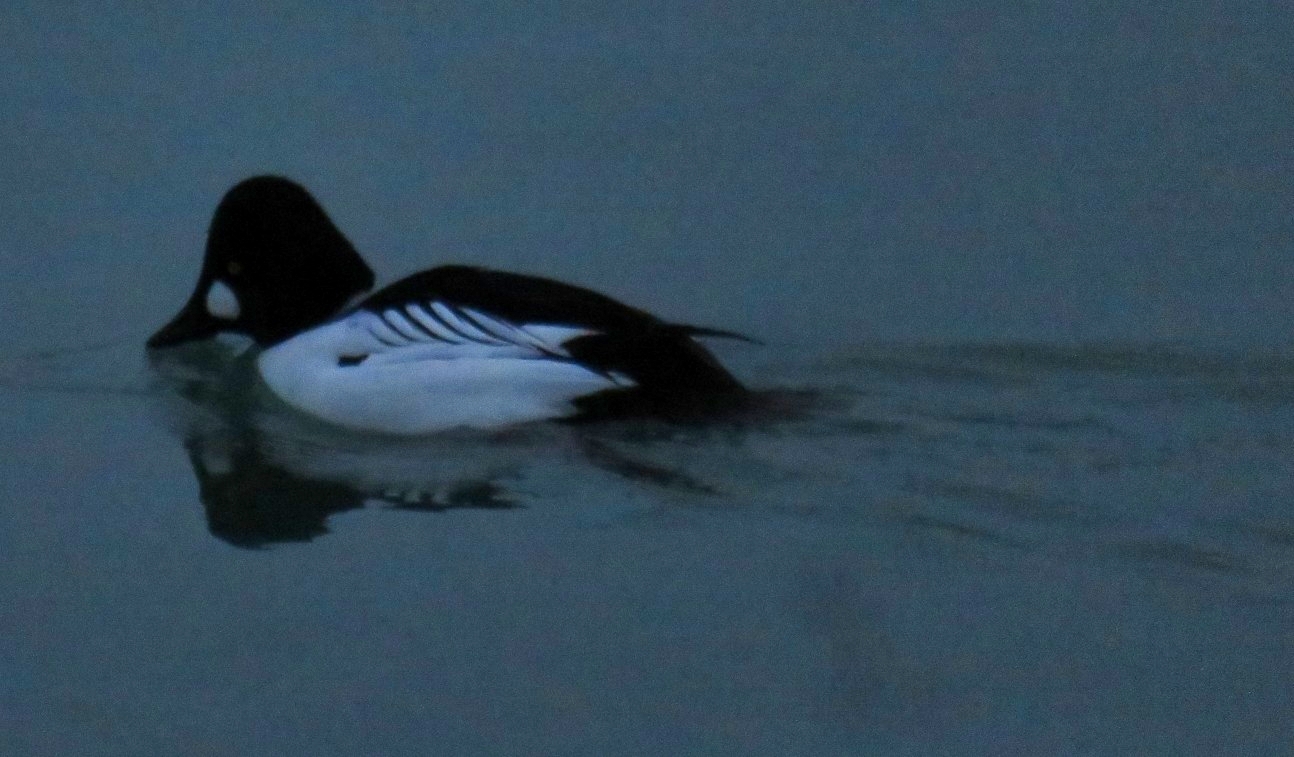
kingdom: Animalia
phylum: Chordata
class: Aves
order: Anseriformes
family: Anatidae
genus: Bucephala
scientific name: Bucephala clangula
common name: Common goldeneye
